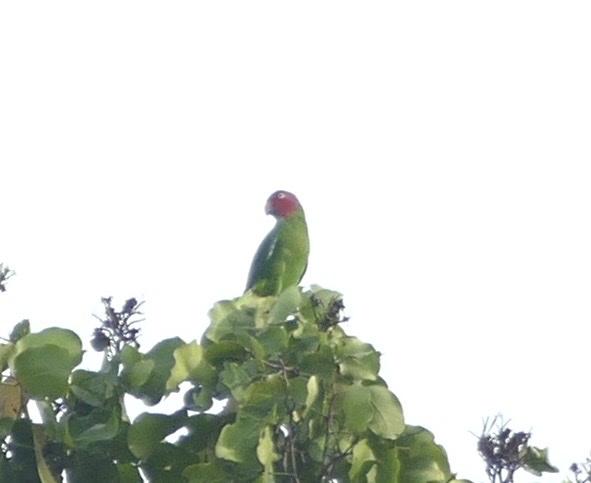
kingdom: Animalia
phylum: Chordata
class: Aves
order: Psittaciformes
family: Psittacidae
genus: Geoffroyus
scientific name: Geoffroyus geoffroyi
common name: Red-cheeked parrot
